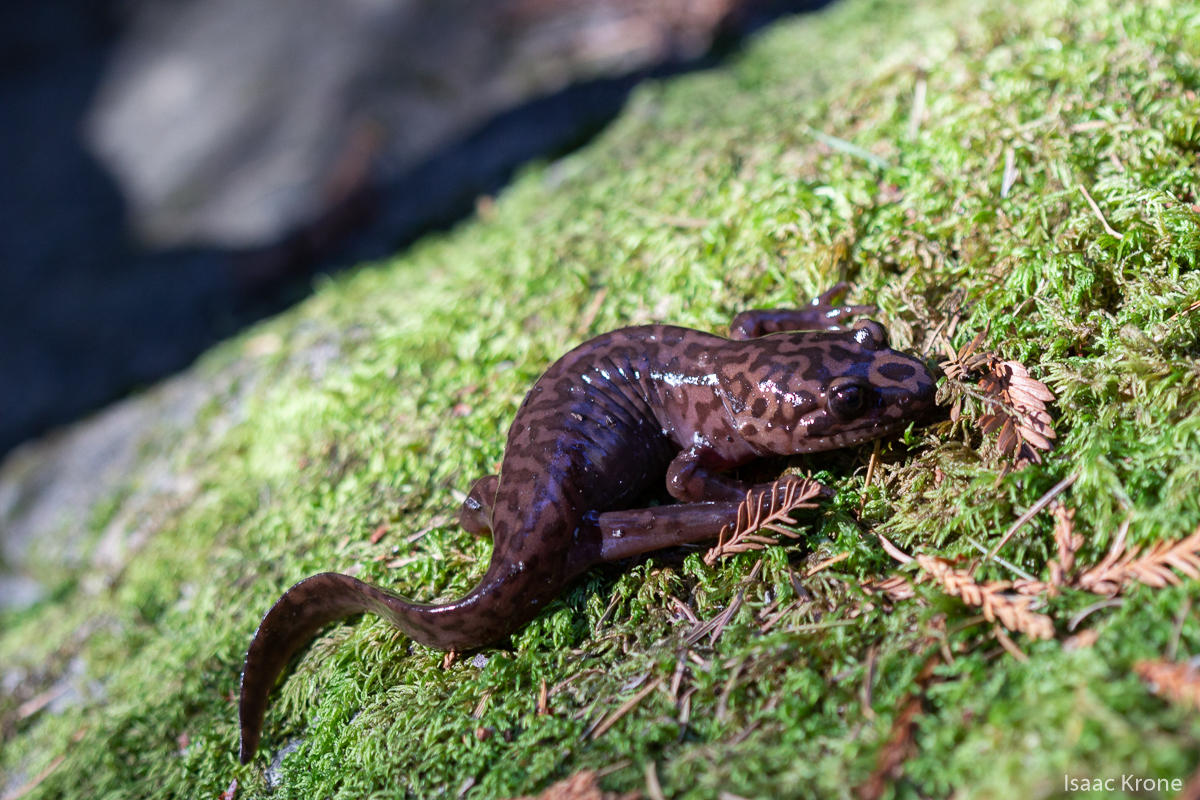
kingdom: Animalia
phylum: Chordata
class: Amphibia
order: Caudata
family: Ambystomatidae
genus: Dicamptodon
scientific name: Dicamptodon ensatus
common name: California giant salamander
